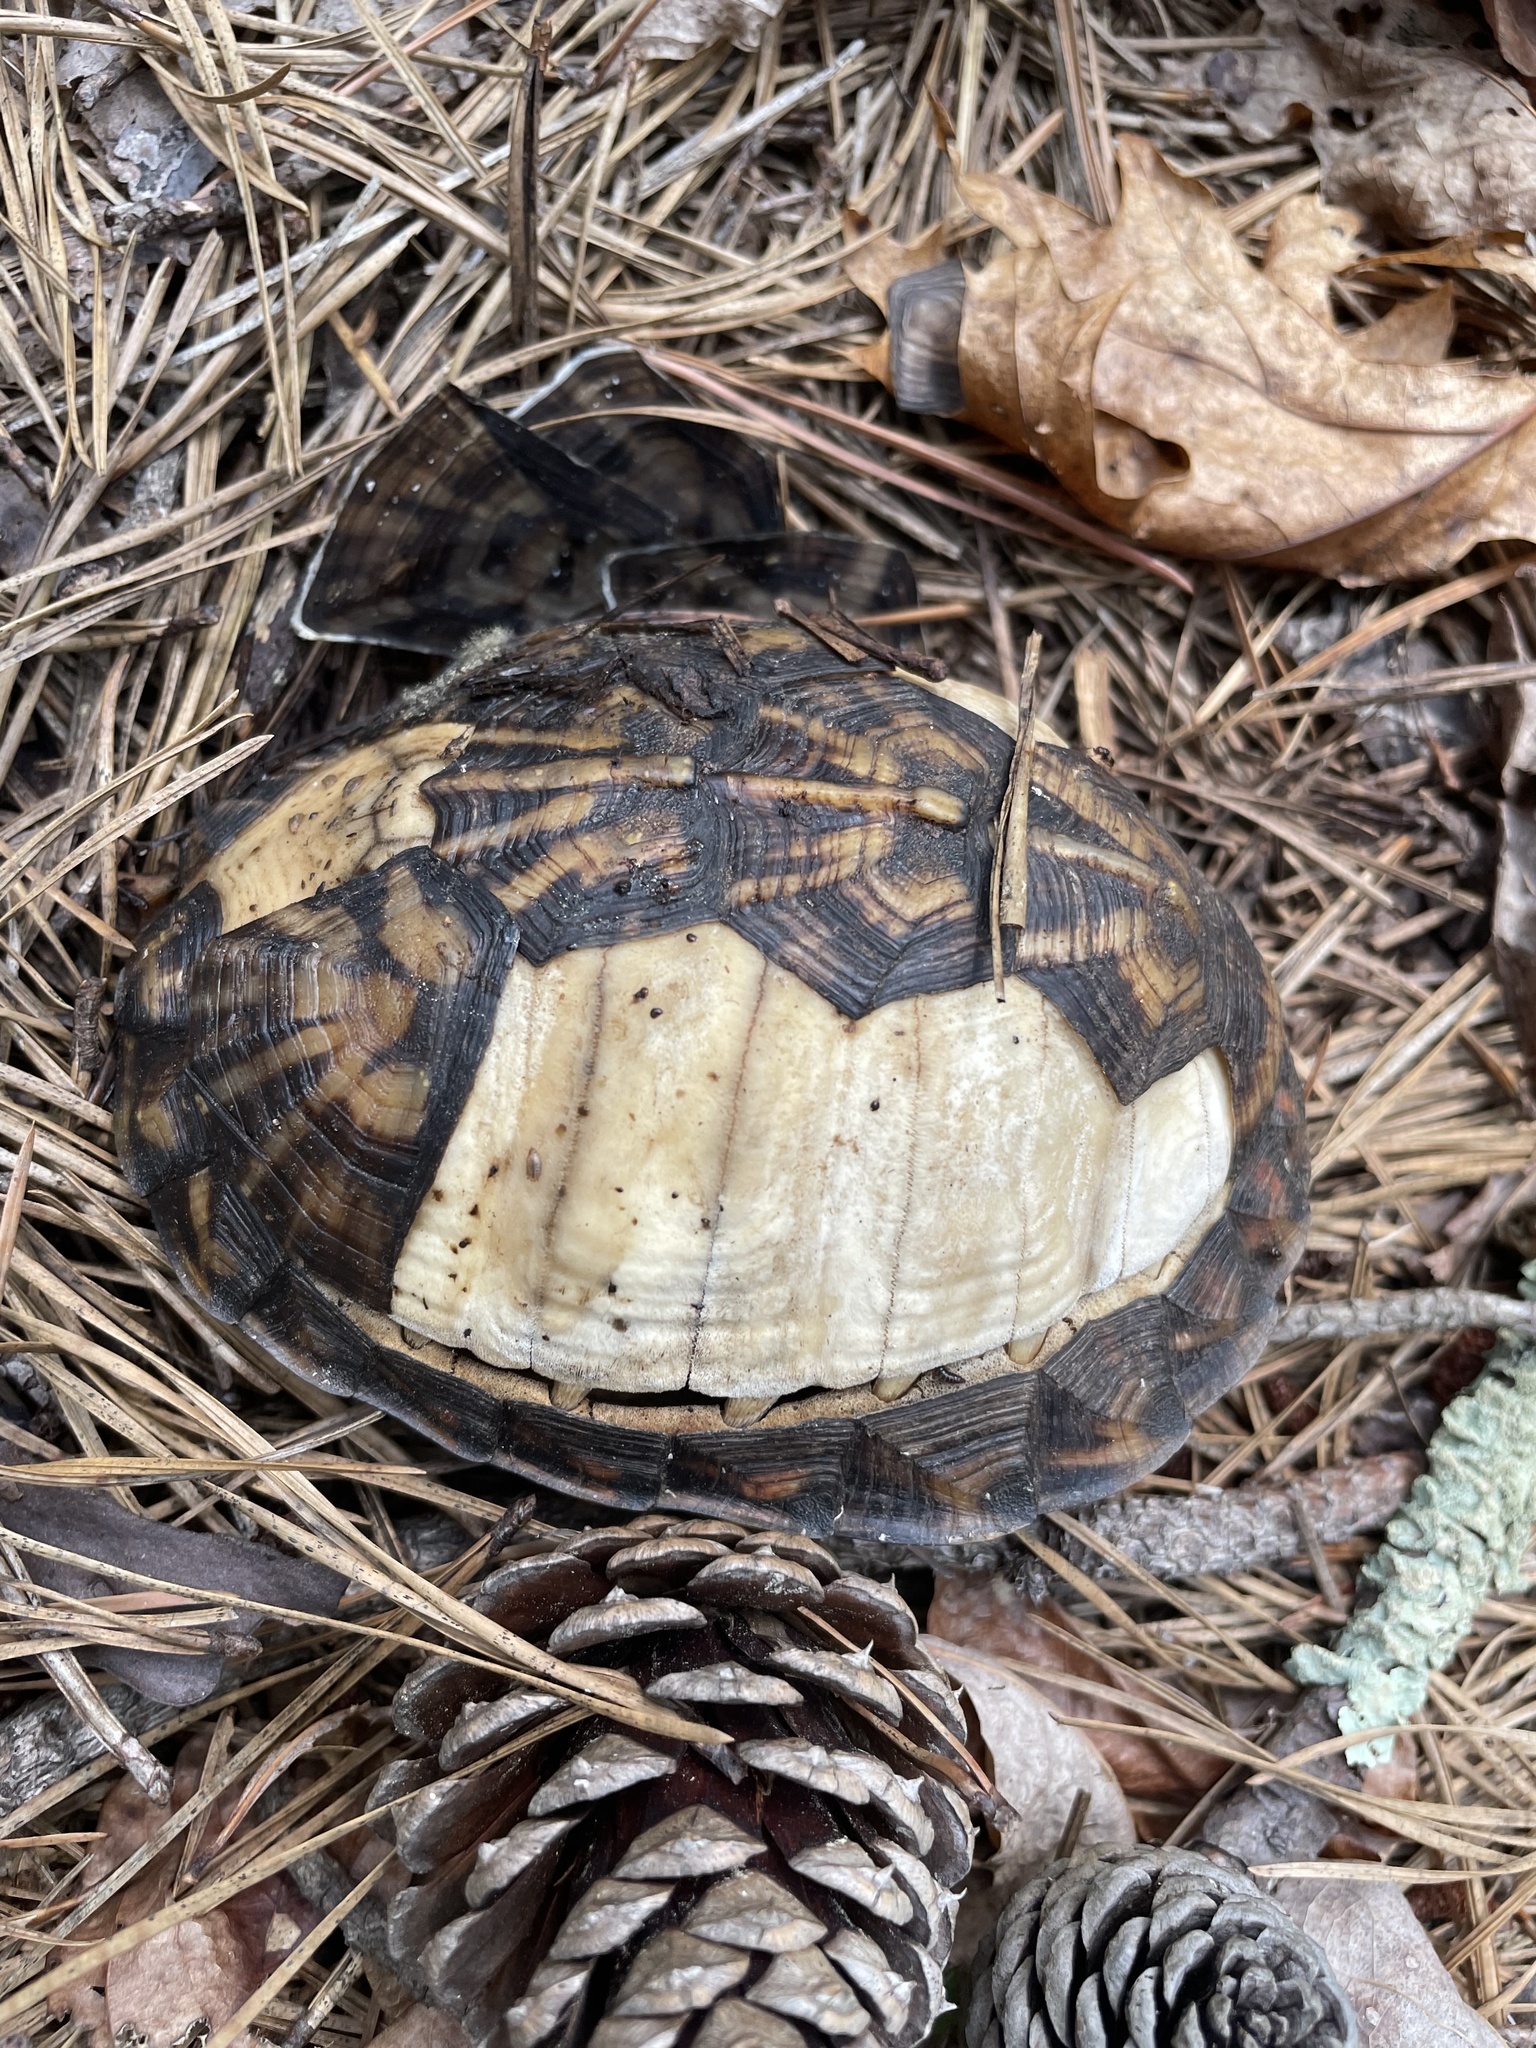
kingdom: Animalia
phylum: Chordata
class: Testudines
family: Emydidae
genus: Terrapene
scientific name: Terrapene carolina
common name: Common box turtle
